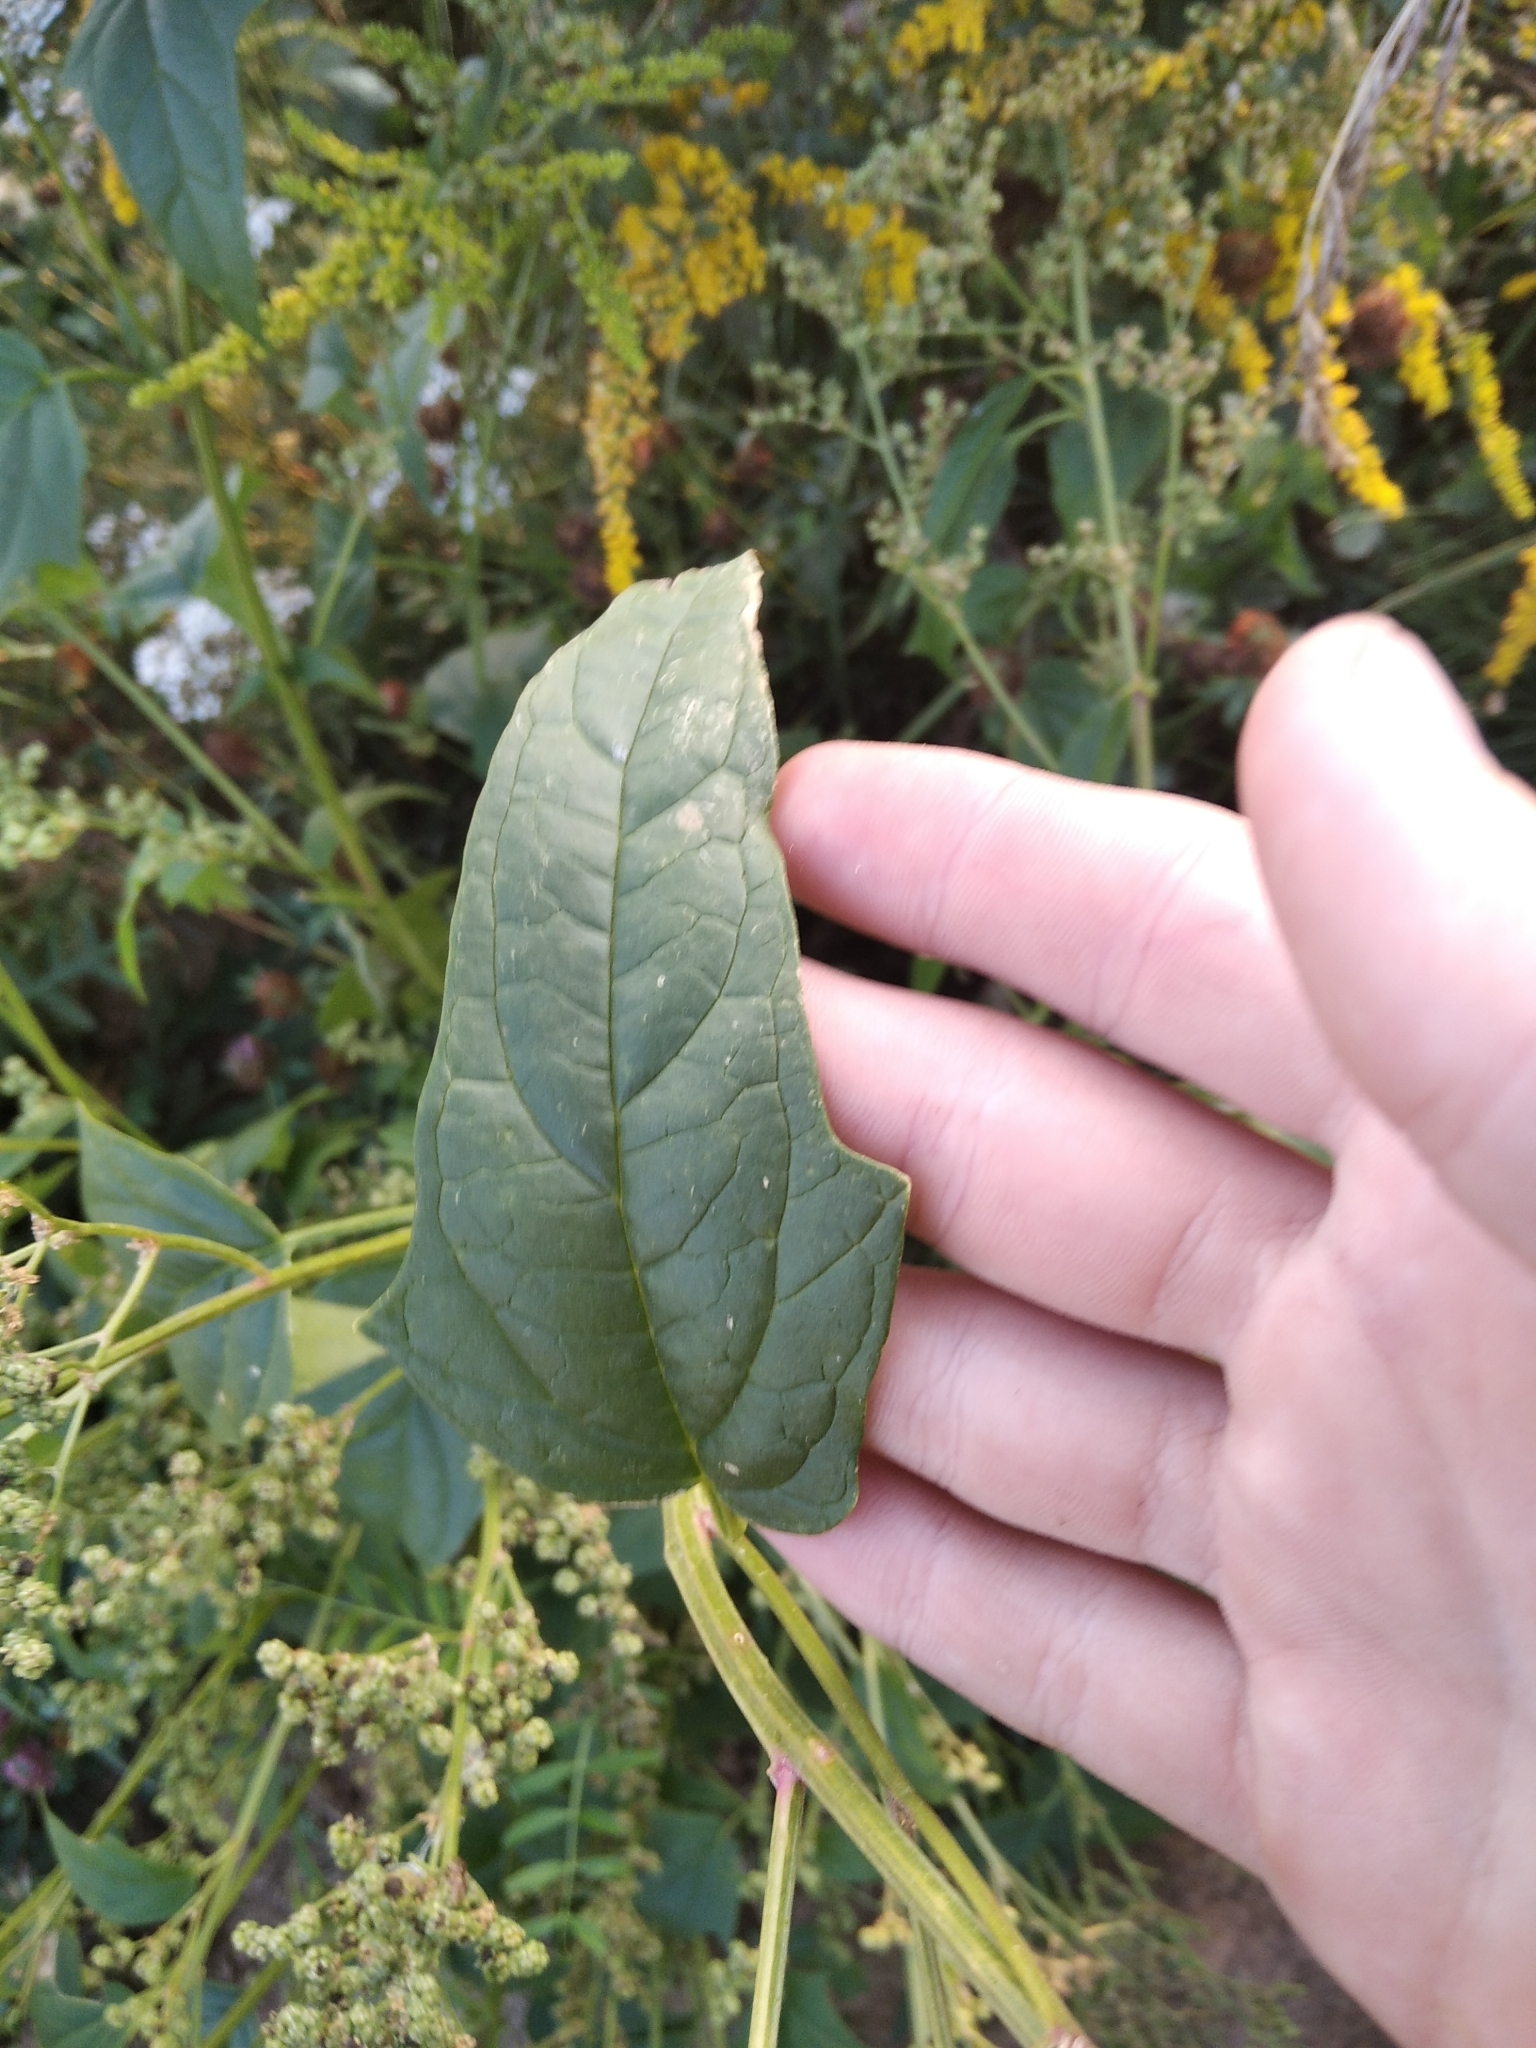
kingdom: Plantae
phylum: Tracheophyta
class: Magnoliopsida
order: Caryophyllales
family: Amaranthaceae
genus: Chenopodiastrum
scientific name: Chenopodiastrum hybridum
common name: Mapleleaf goosefoot
